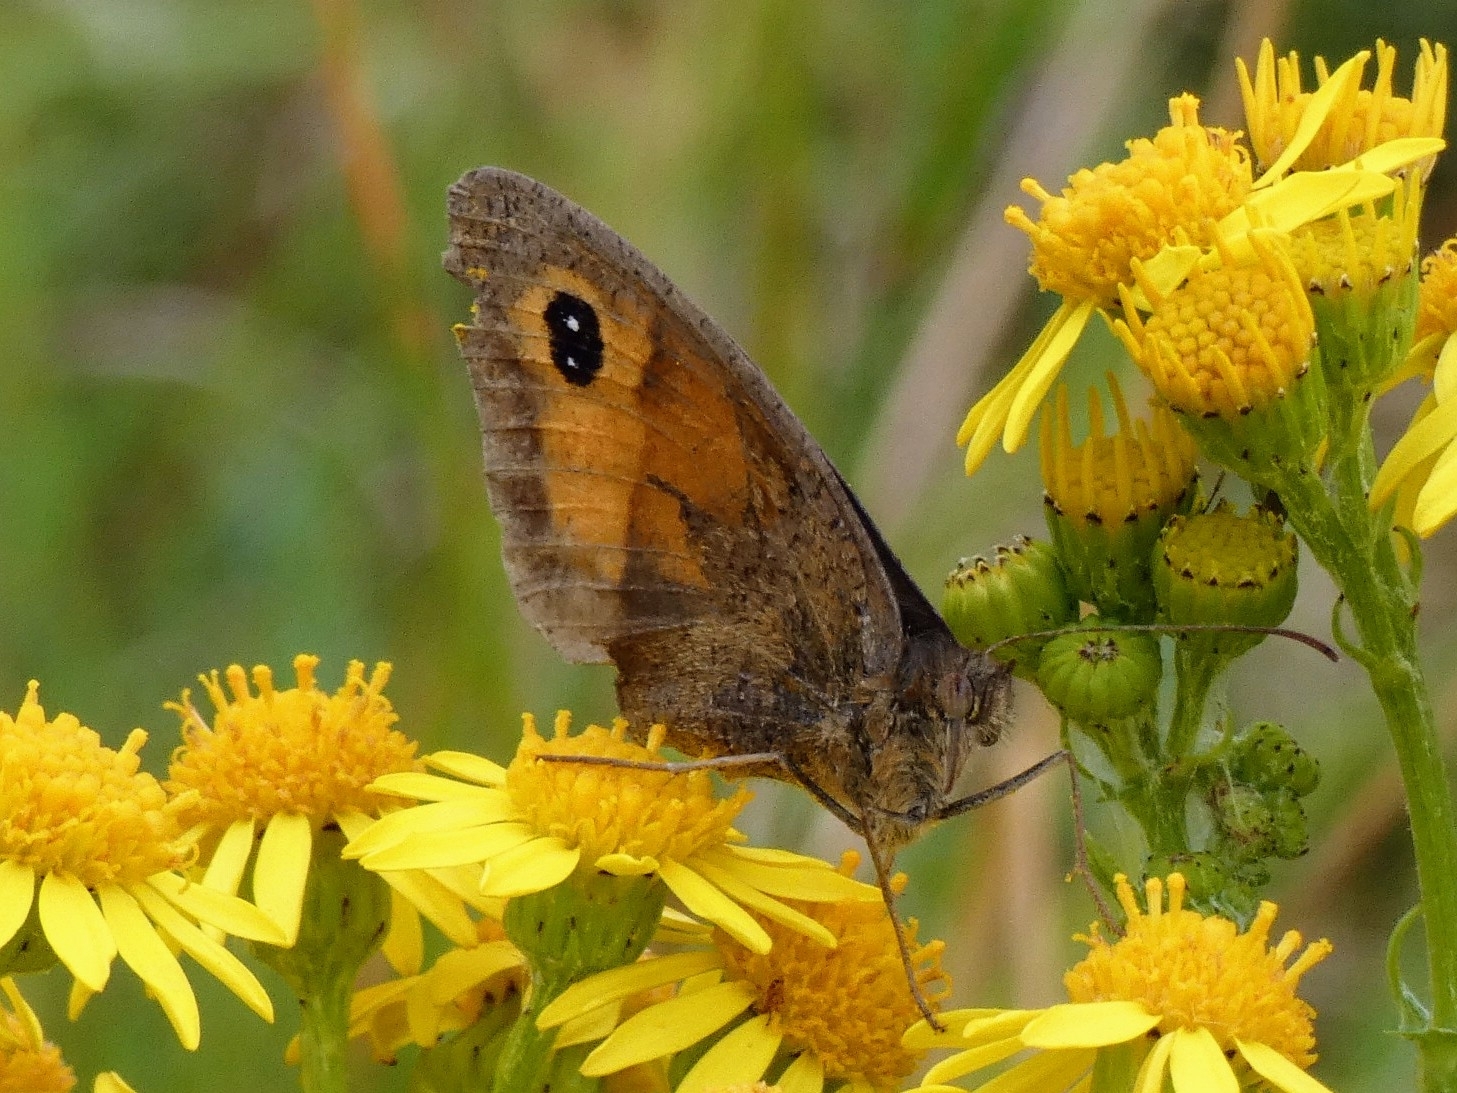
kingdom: Animalia
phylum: Arthropoda
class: Insecta
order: Lepidoptera
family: Nymphalidae
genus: Pyronia
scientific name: Pyronia tithonus
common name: Gatekeeper
